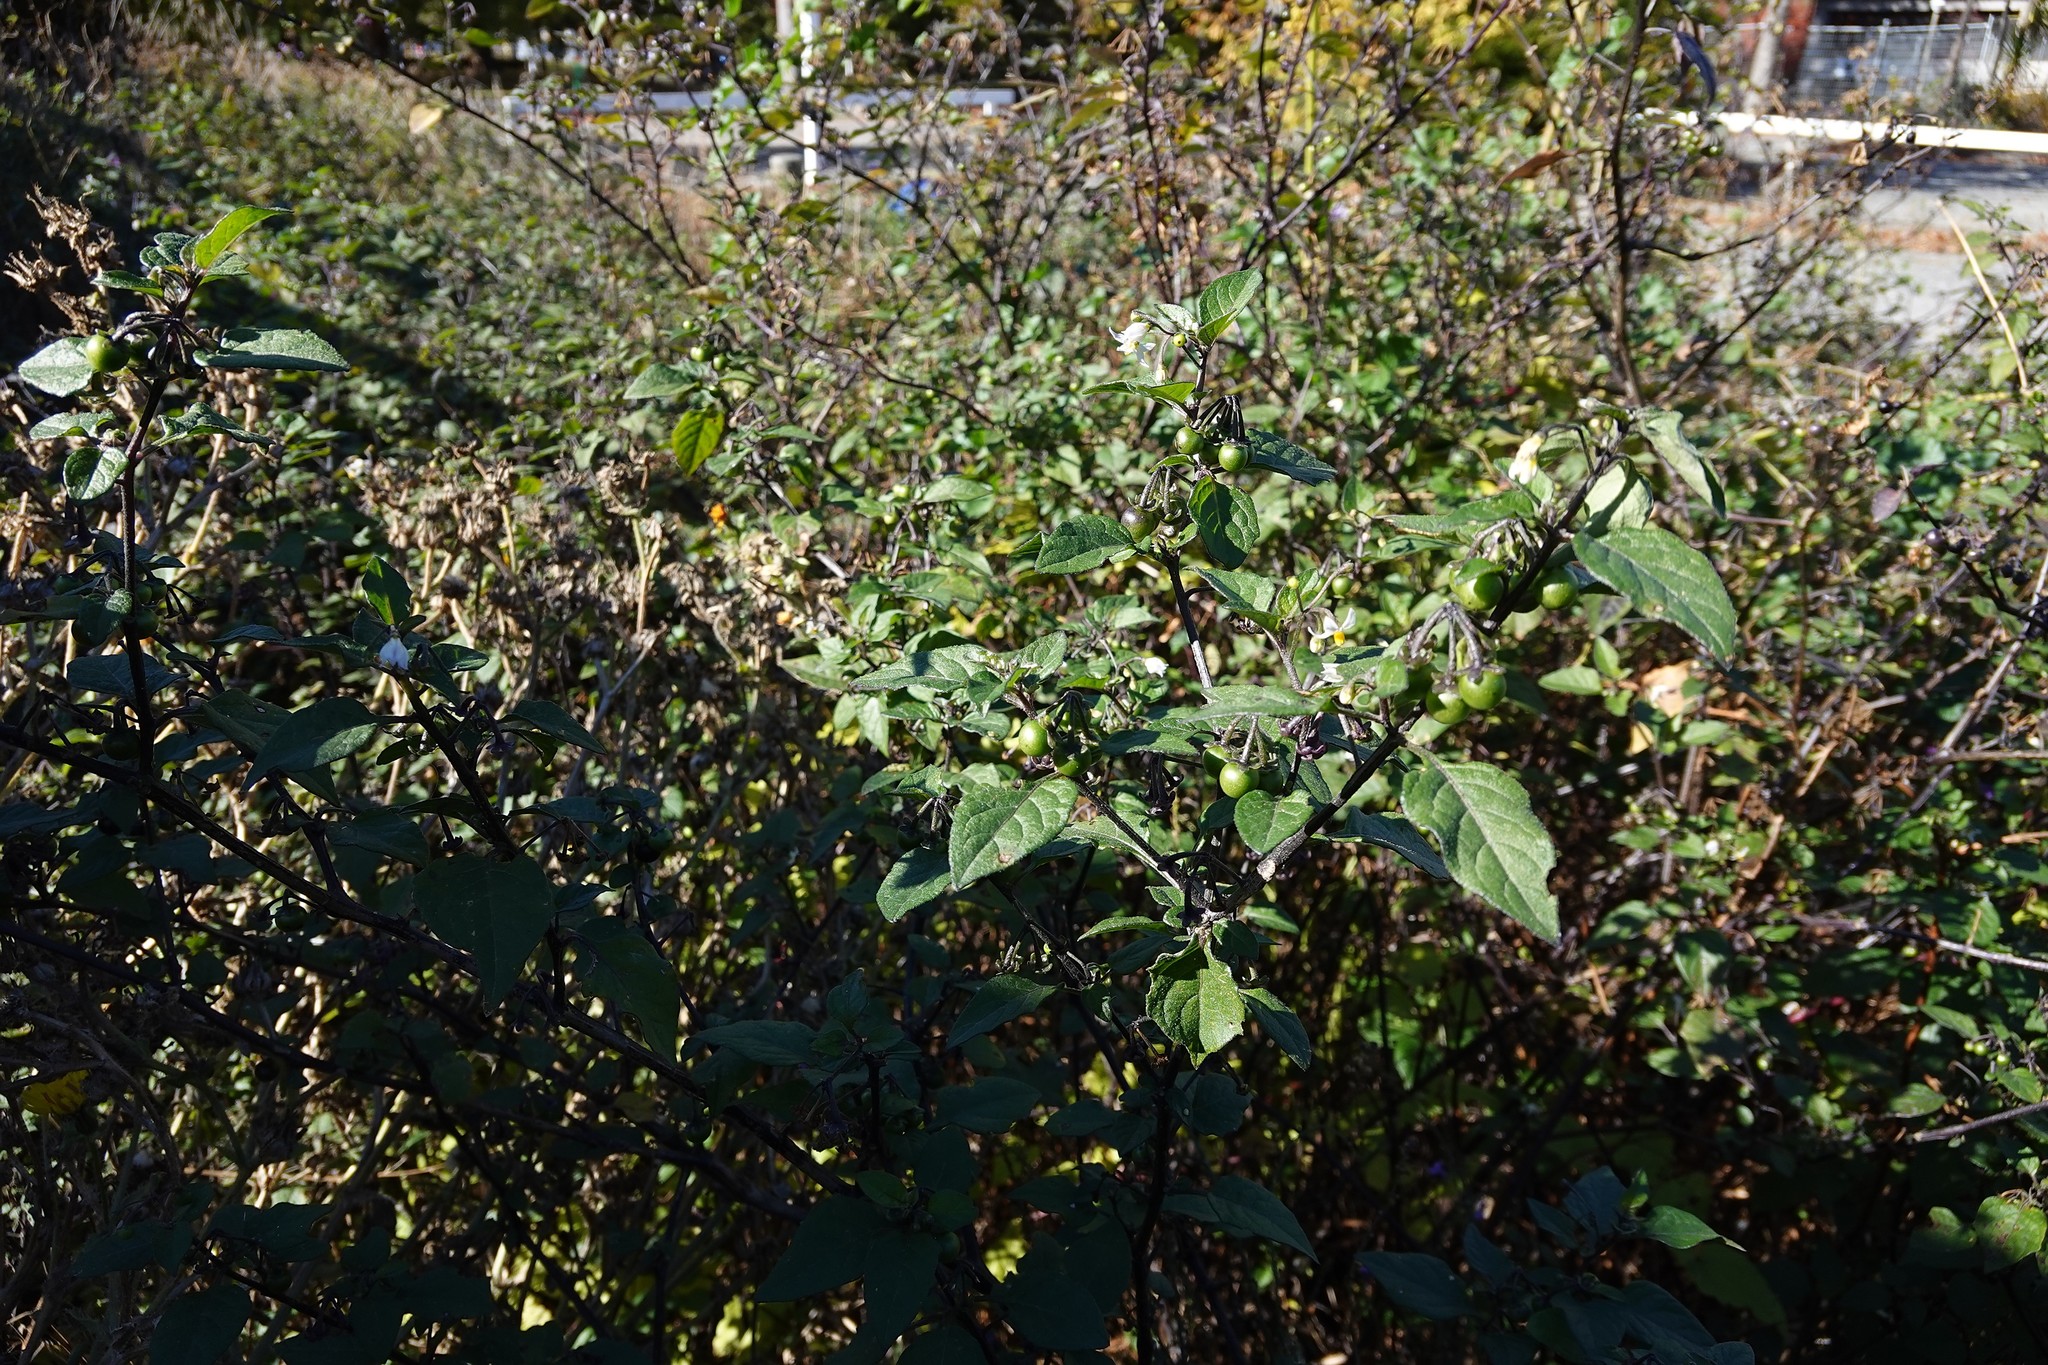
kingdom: Plantae
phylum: Tracheophyta
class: Magnoliopsida
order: Solanales
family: Solanaceae
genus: Solanum
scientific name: Solanum nigrum
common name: Black nightshade
